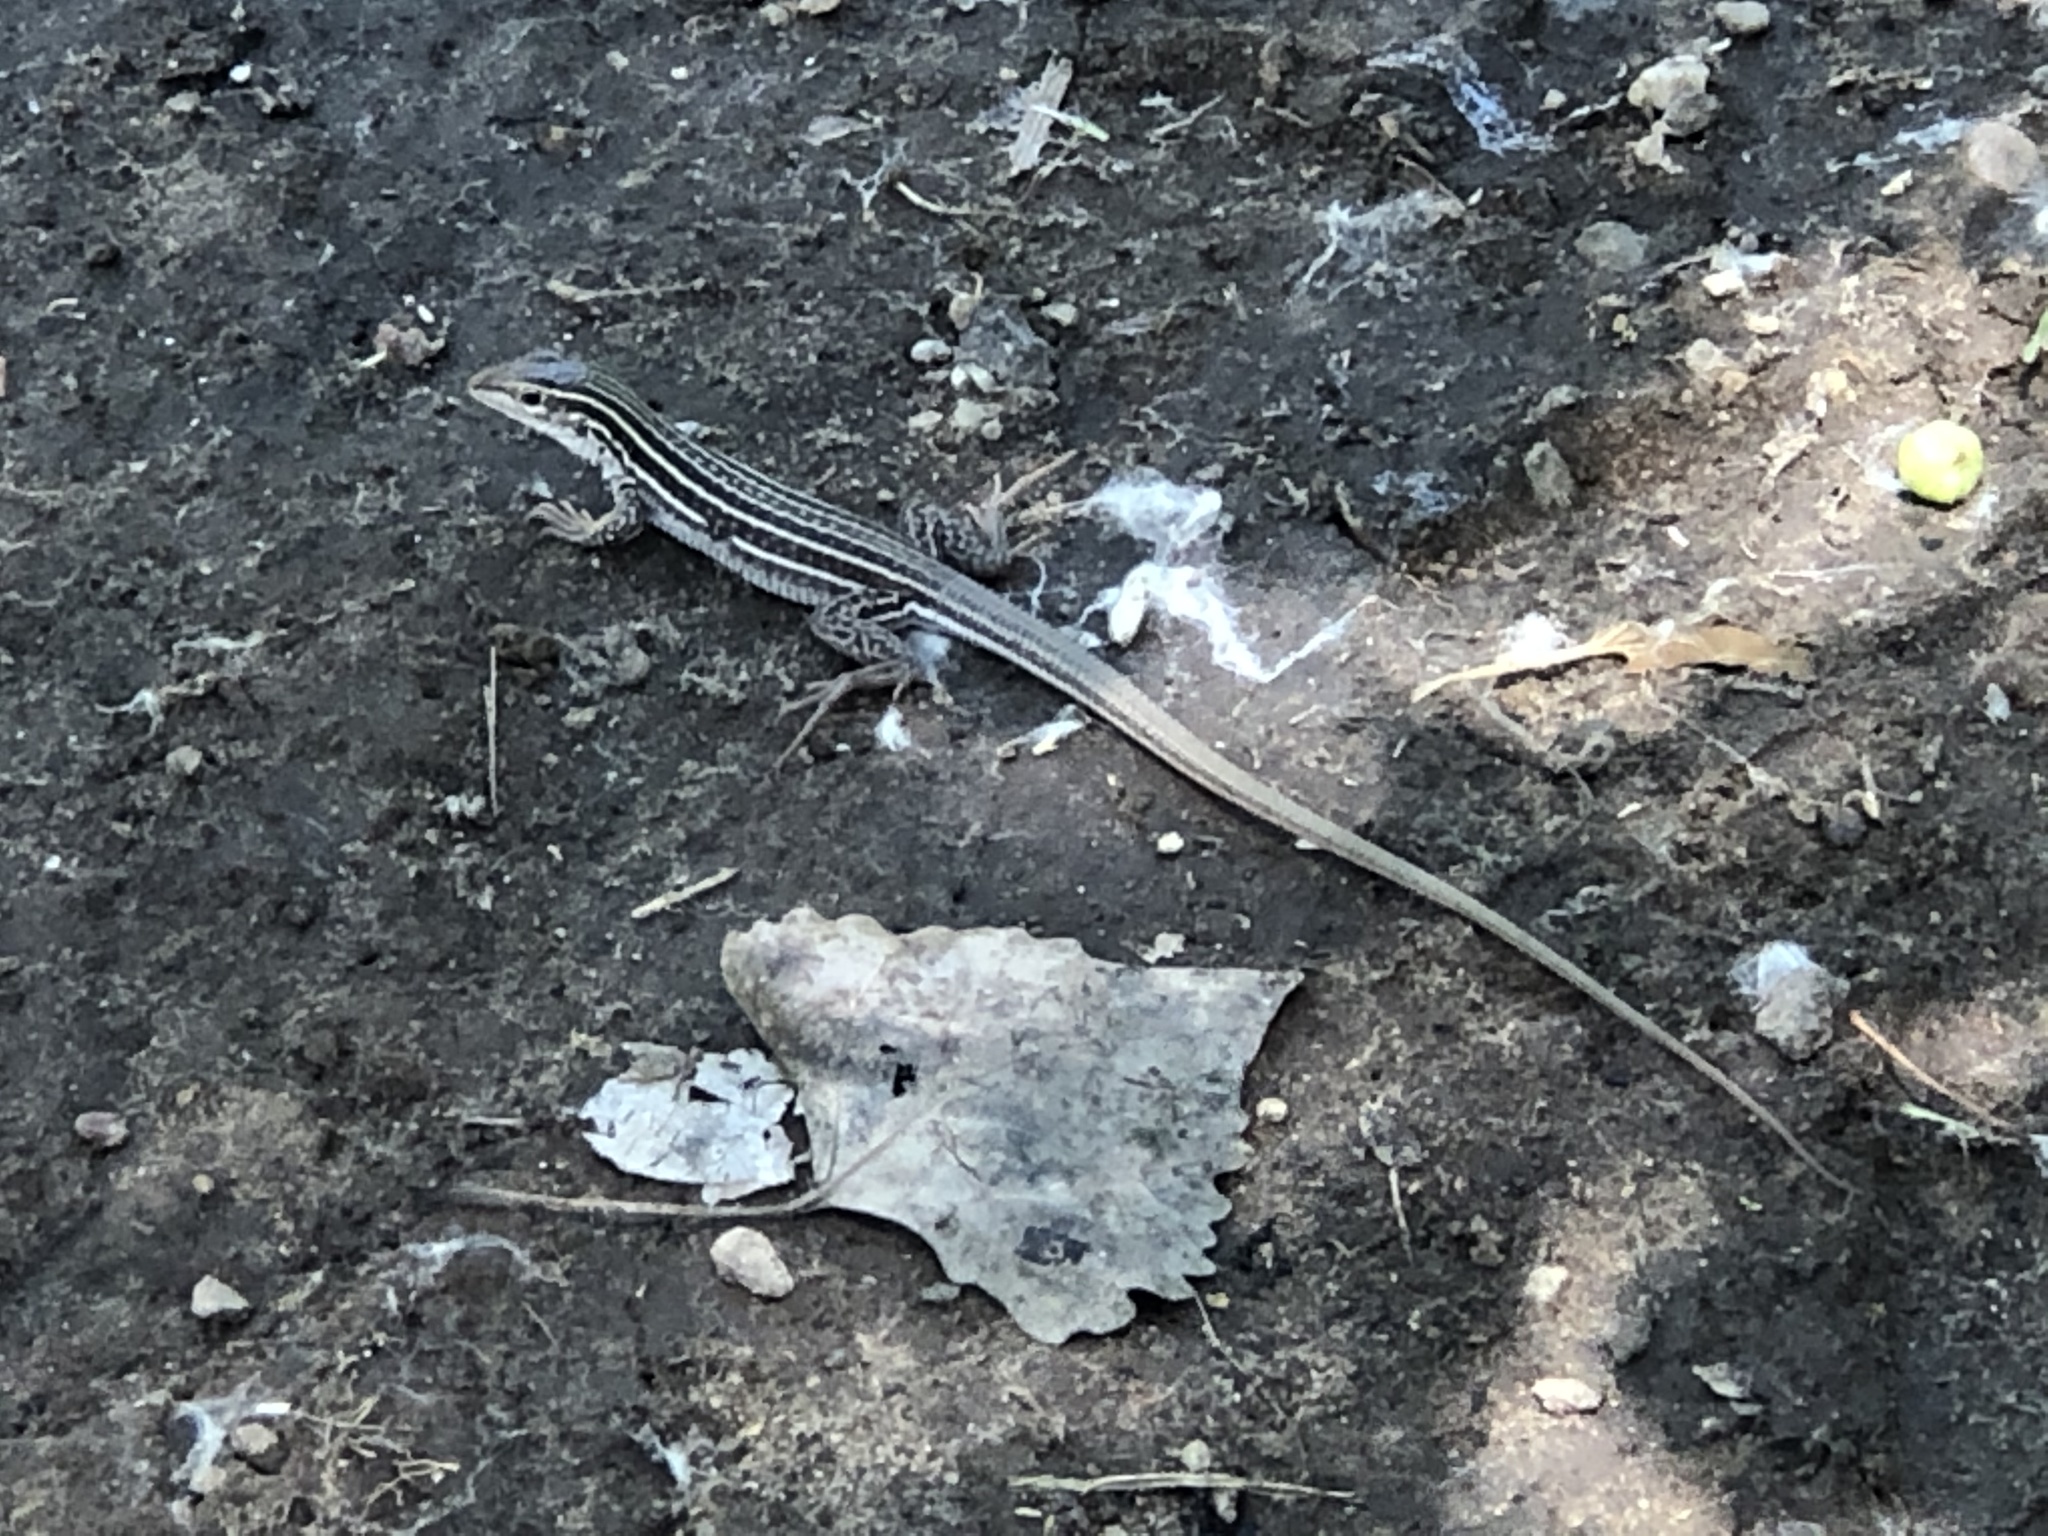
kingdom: Animalia
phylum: Chordata
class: Squamata
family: Teiidae
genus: Aspidoscelis
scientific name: Aspidoscelis neomexicanus
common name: New mexico whiptail
